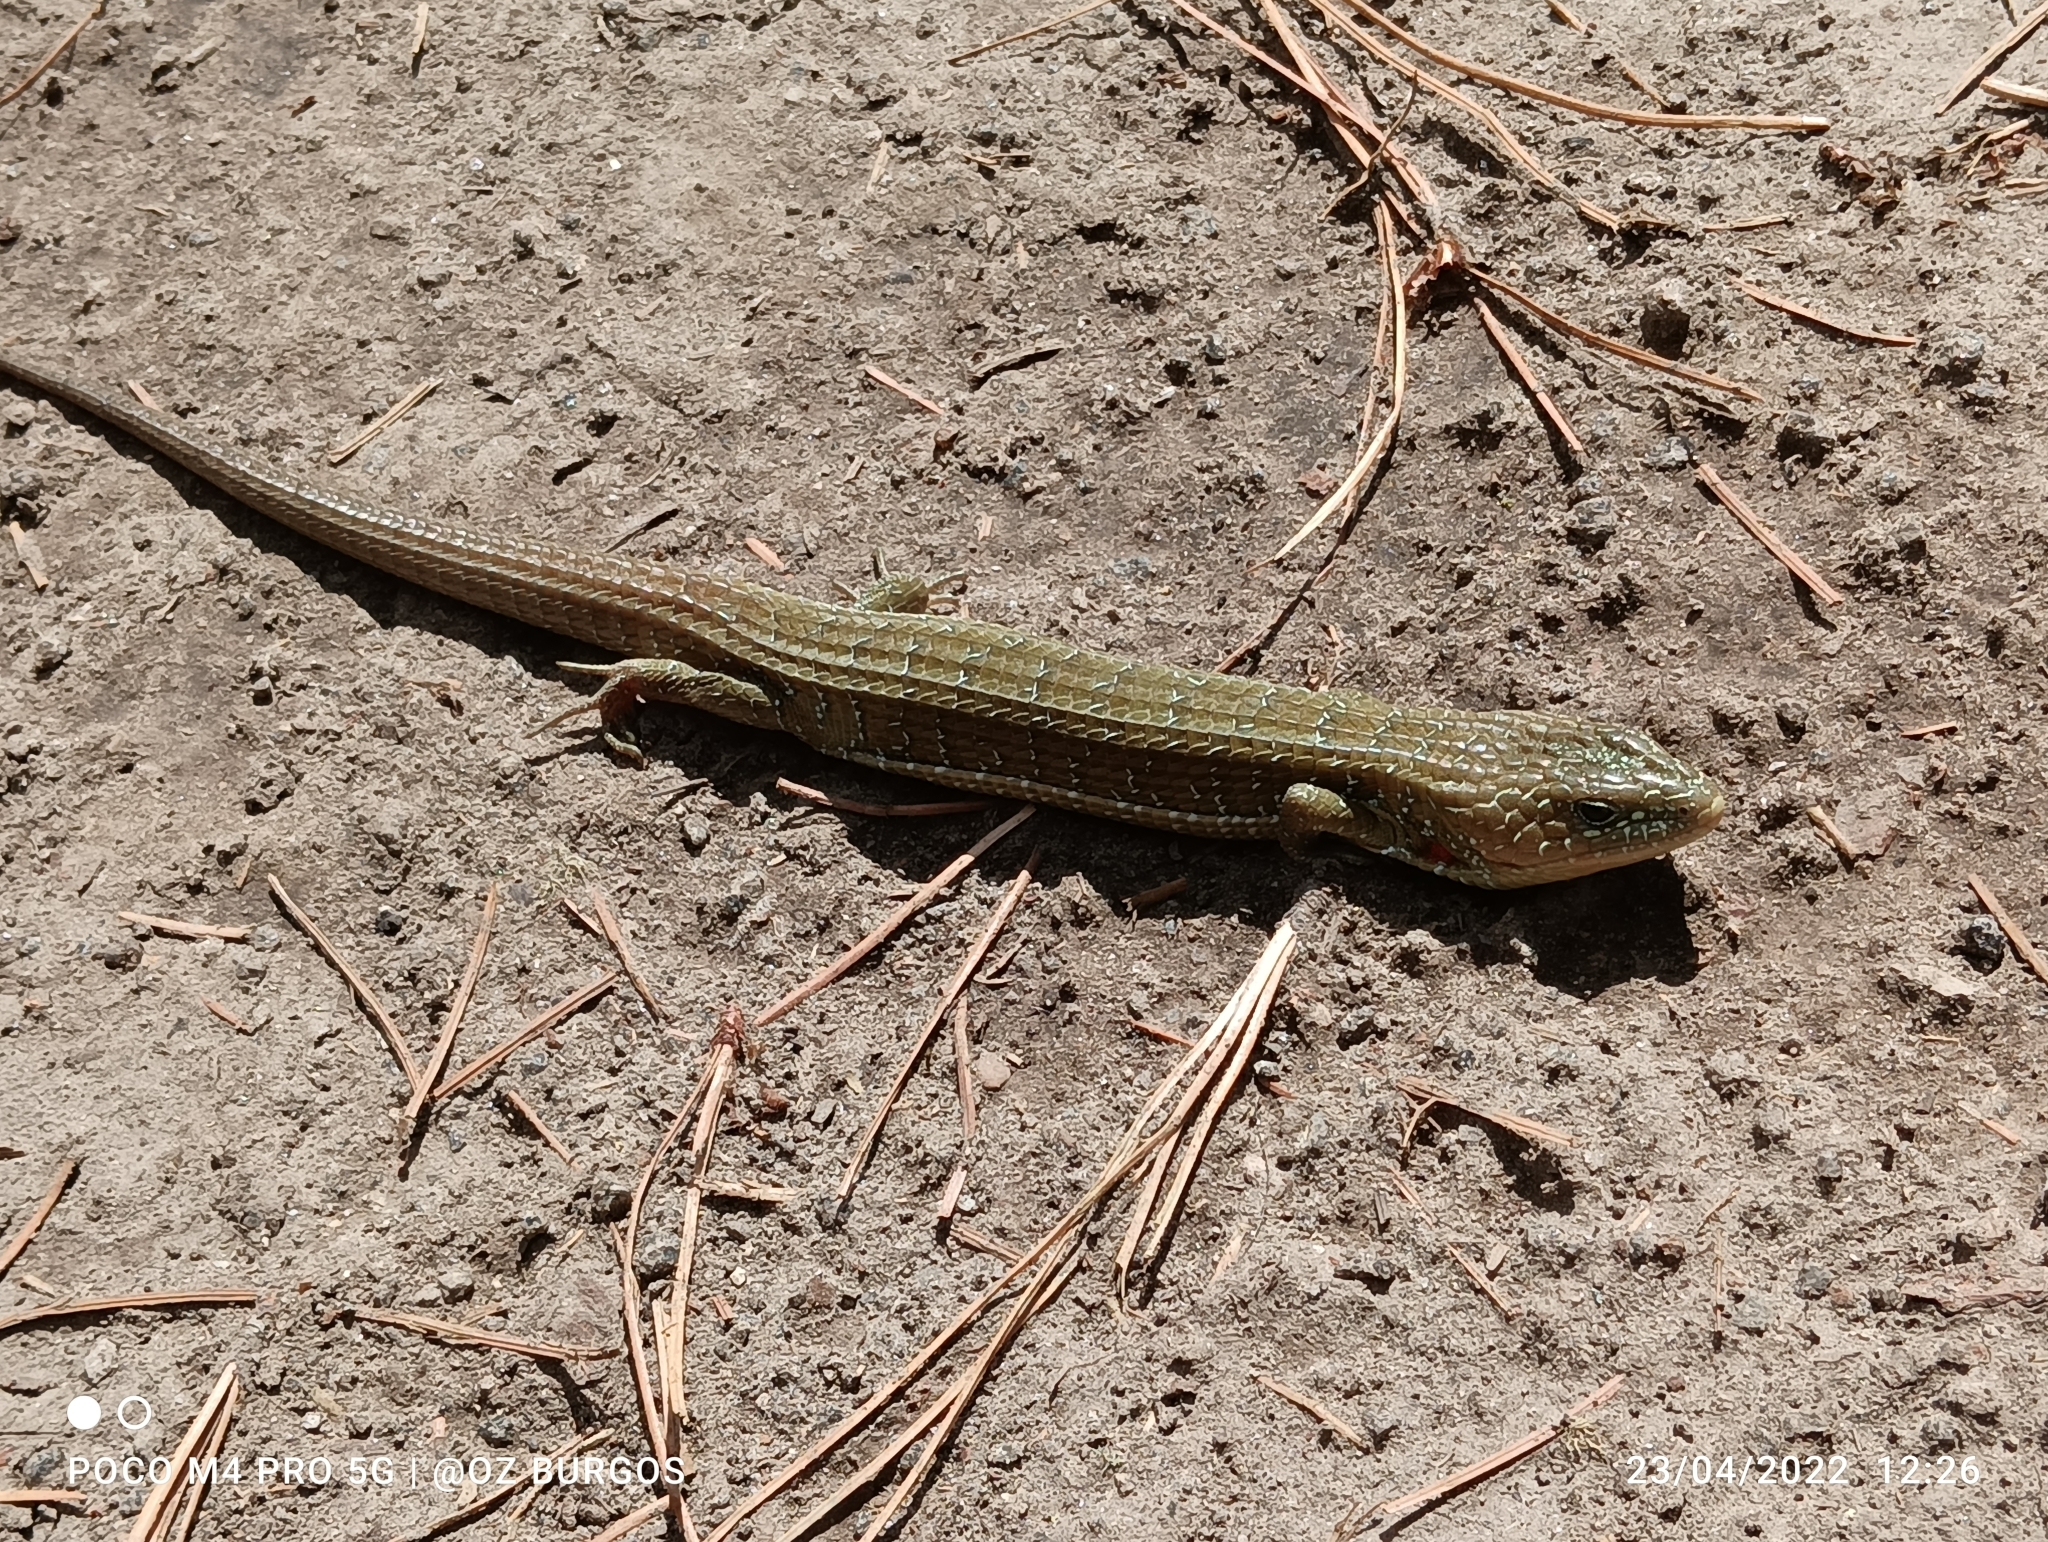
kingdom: Animalia
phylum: Chordata
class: Squamata
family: Anguidae
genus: Barisia
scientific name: Barisia imbricata
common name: Imbricate alligator lizard
